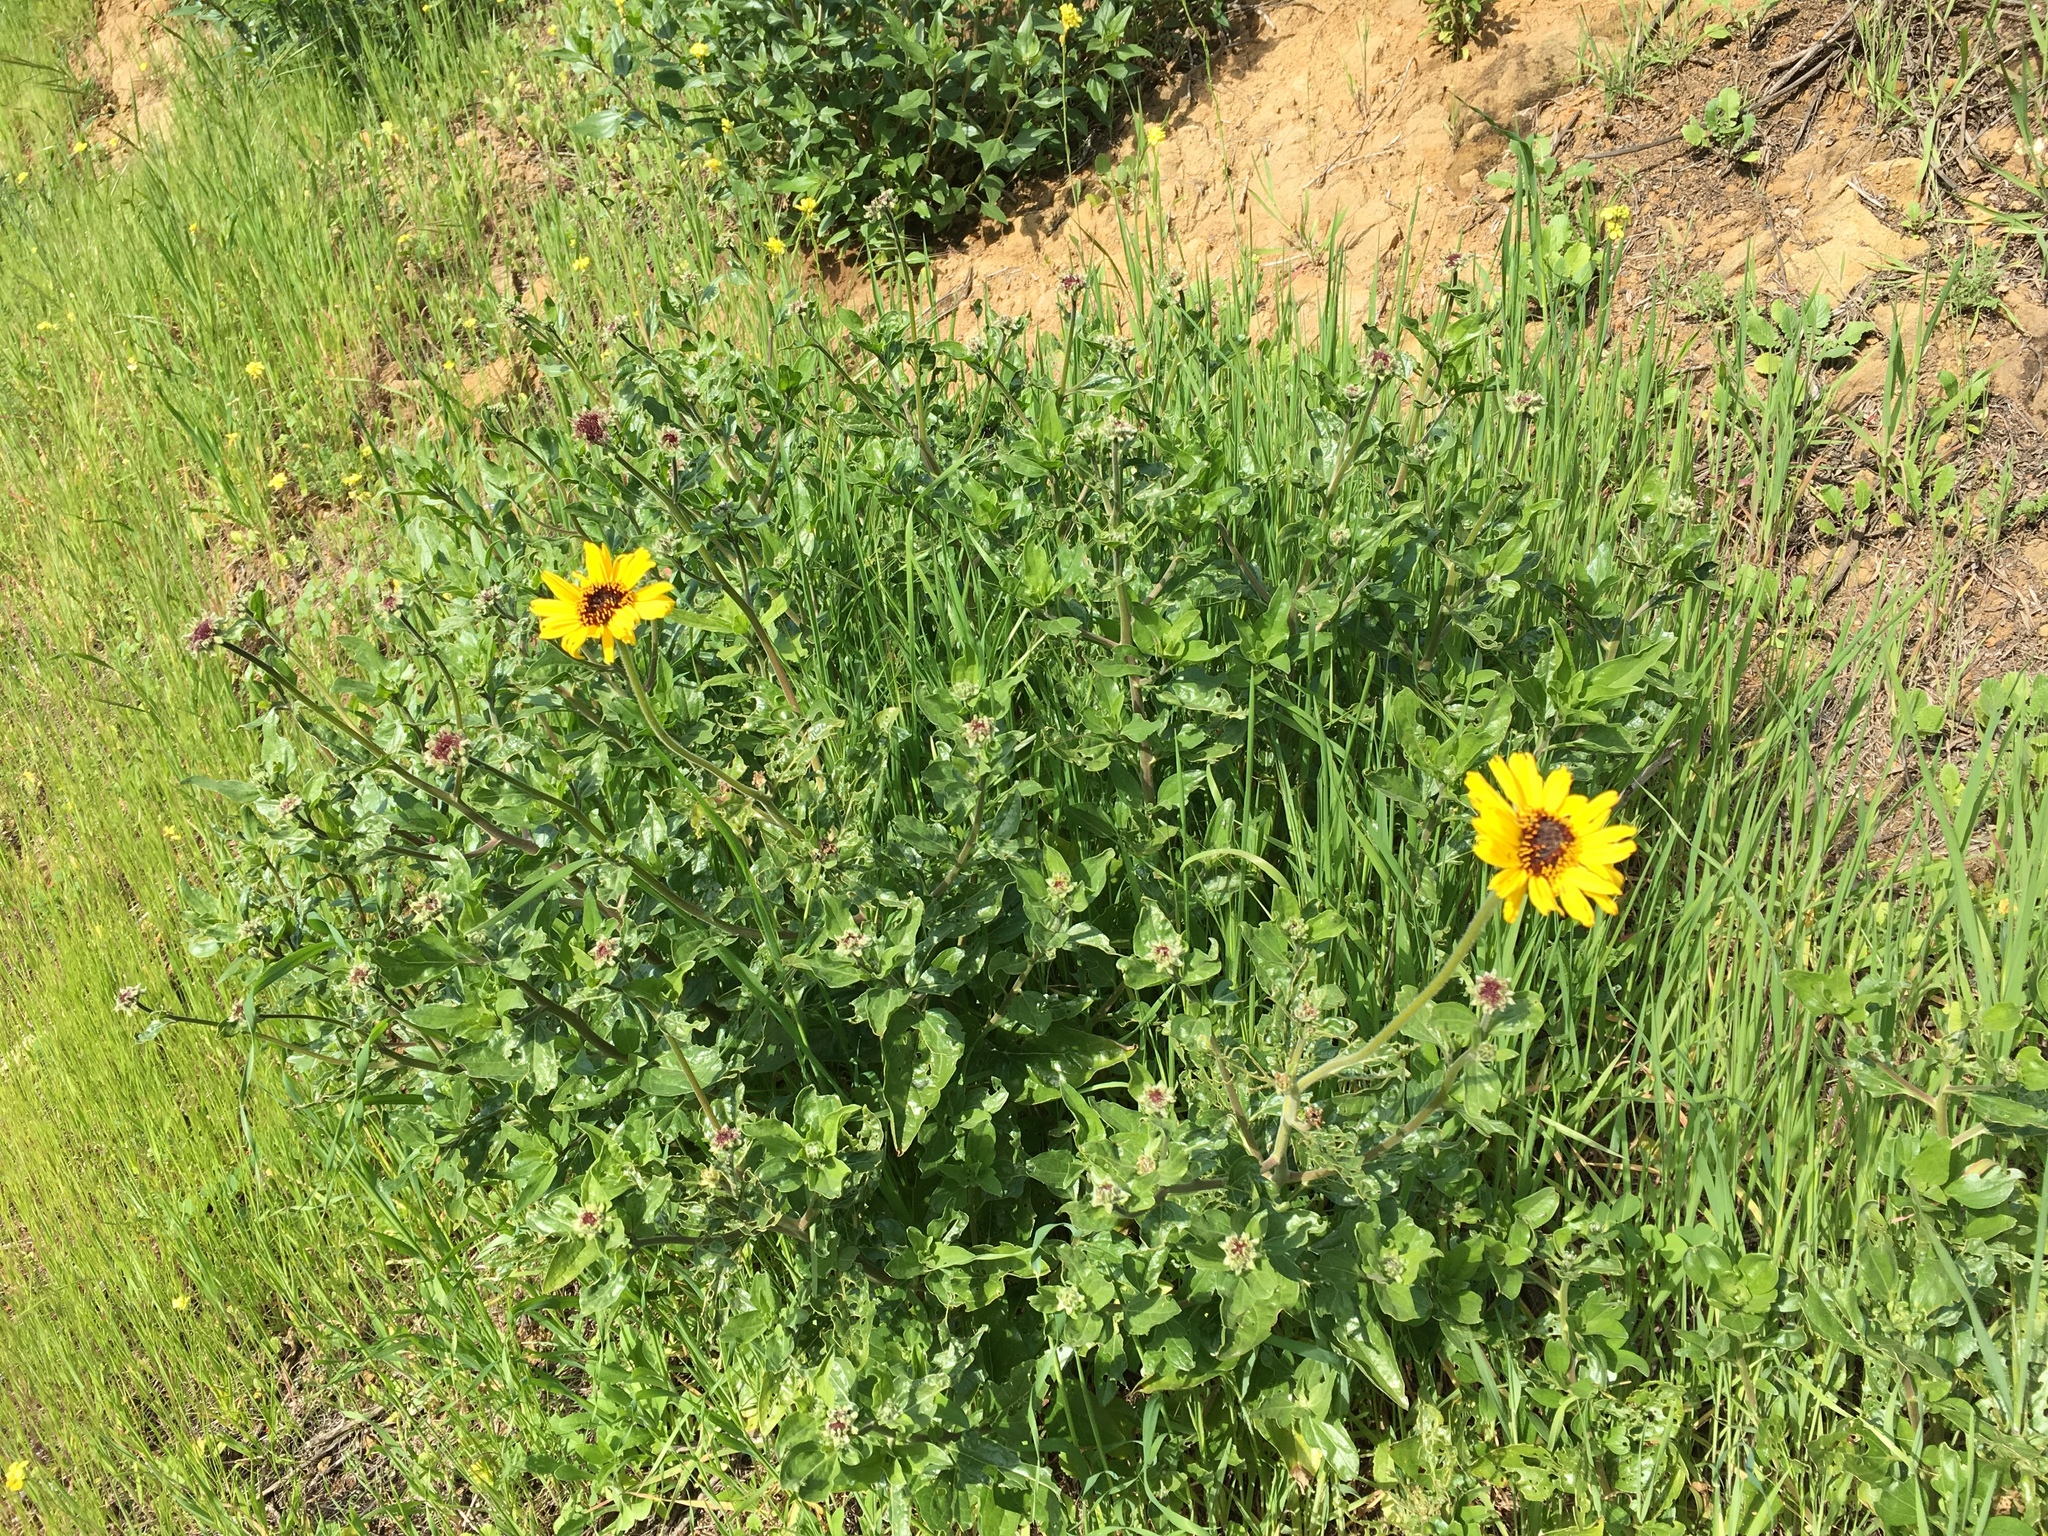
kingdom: Plantae
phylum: Tracheophyta
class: Magnoliopsida
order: Asterales
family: Asteraceae
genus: Encelia
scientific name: Encelia californica
